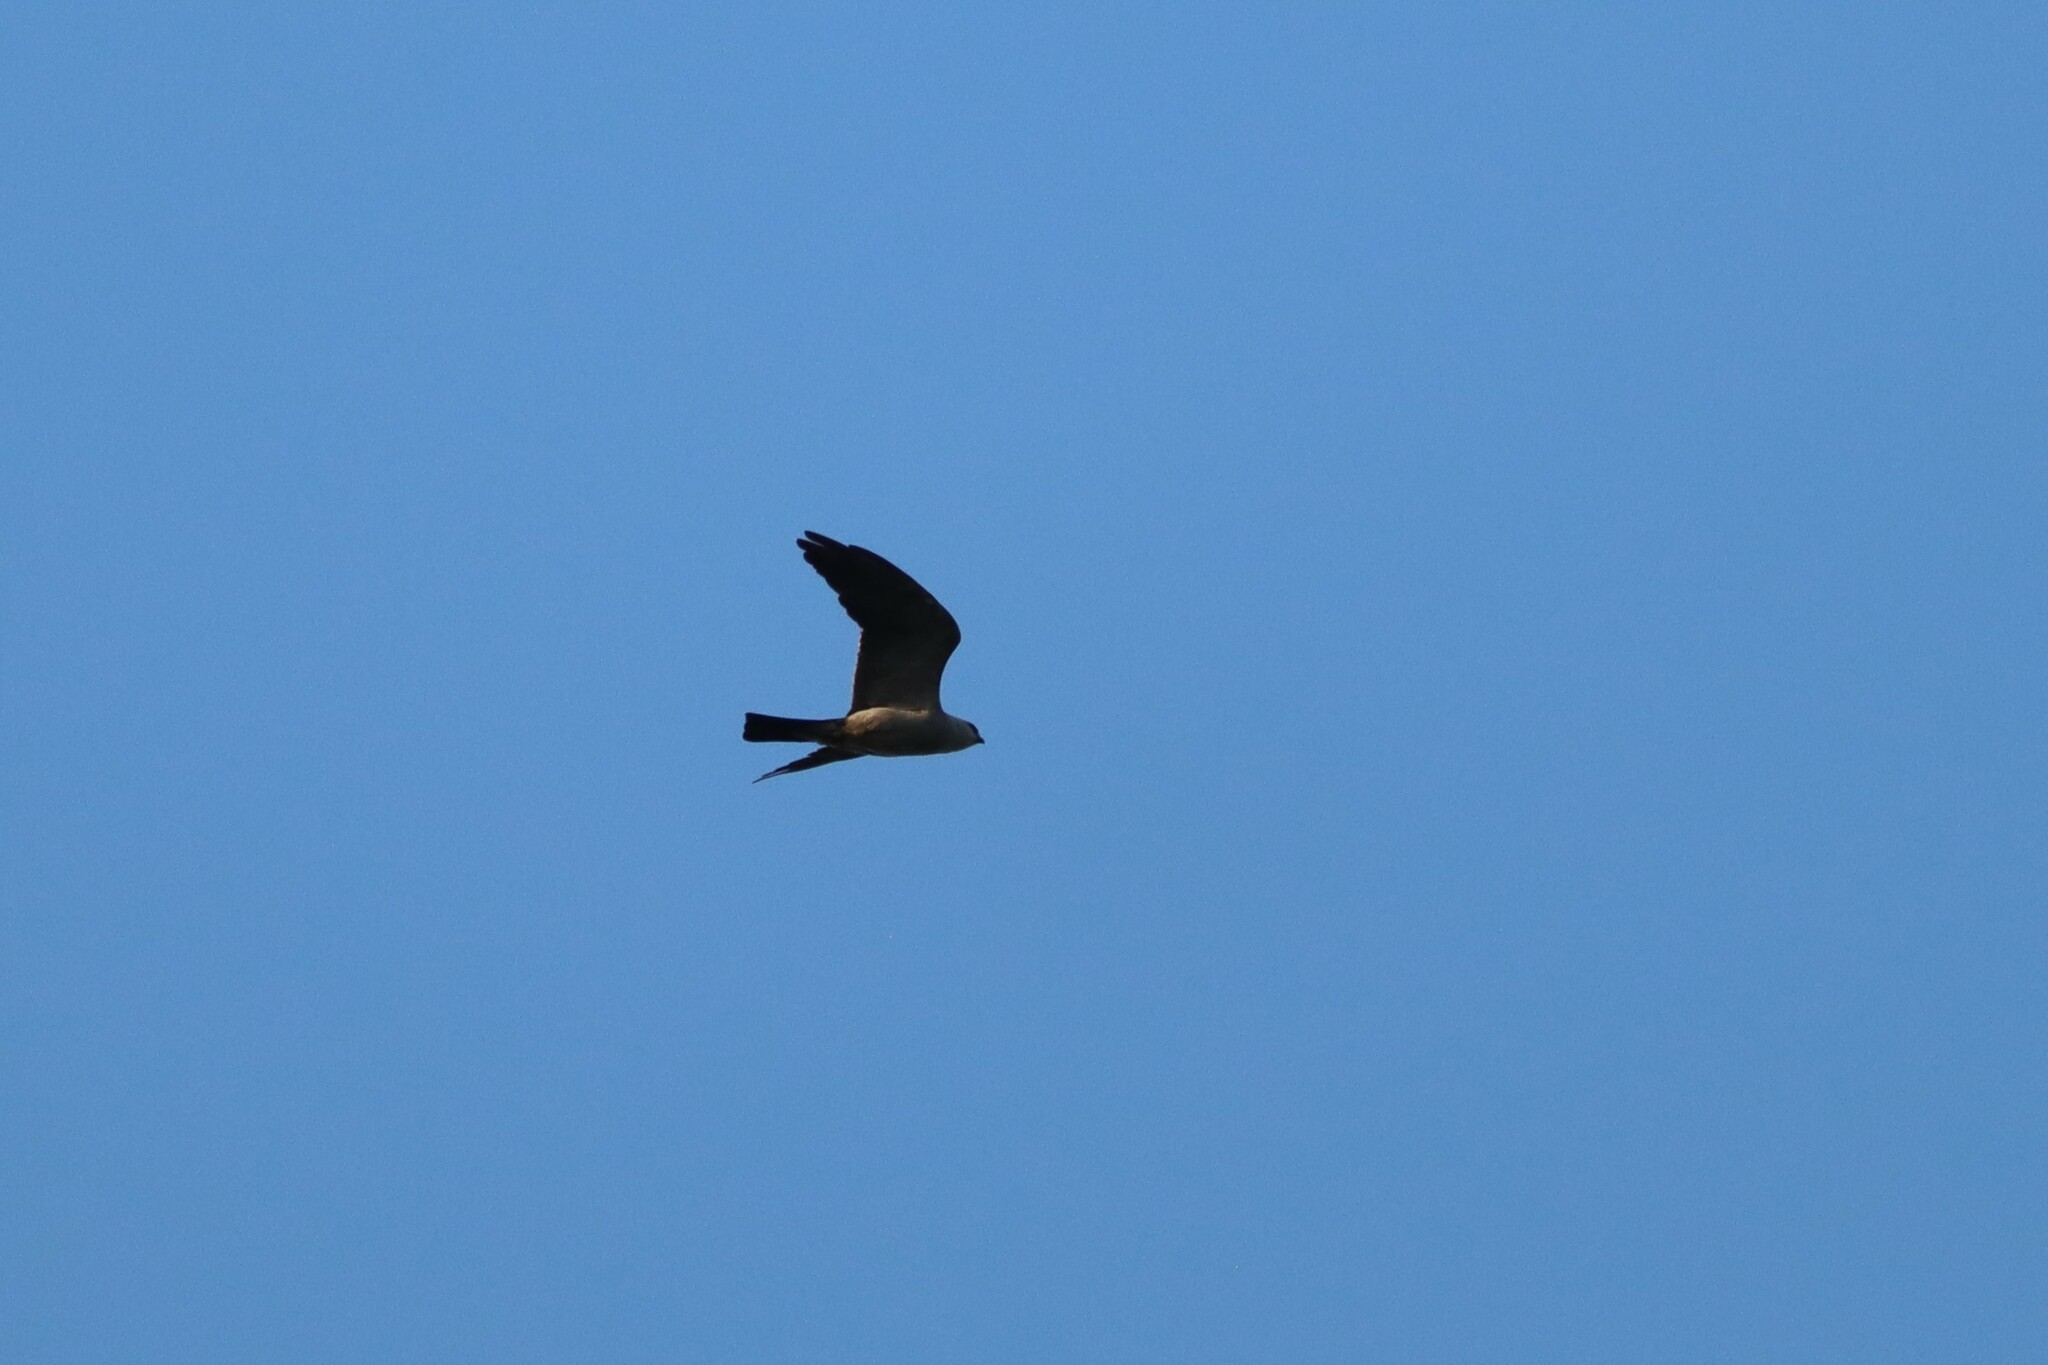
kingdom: Animalia
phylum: Chordata
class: Aves
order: Accipitriformes
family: Accipitridae
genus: Ictinia
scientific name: Ictinia mississippiensis
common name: Mississippi kite
